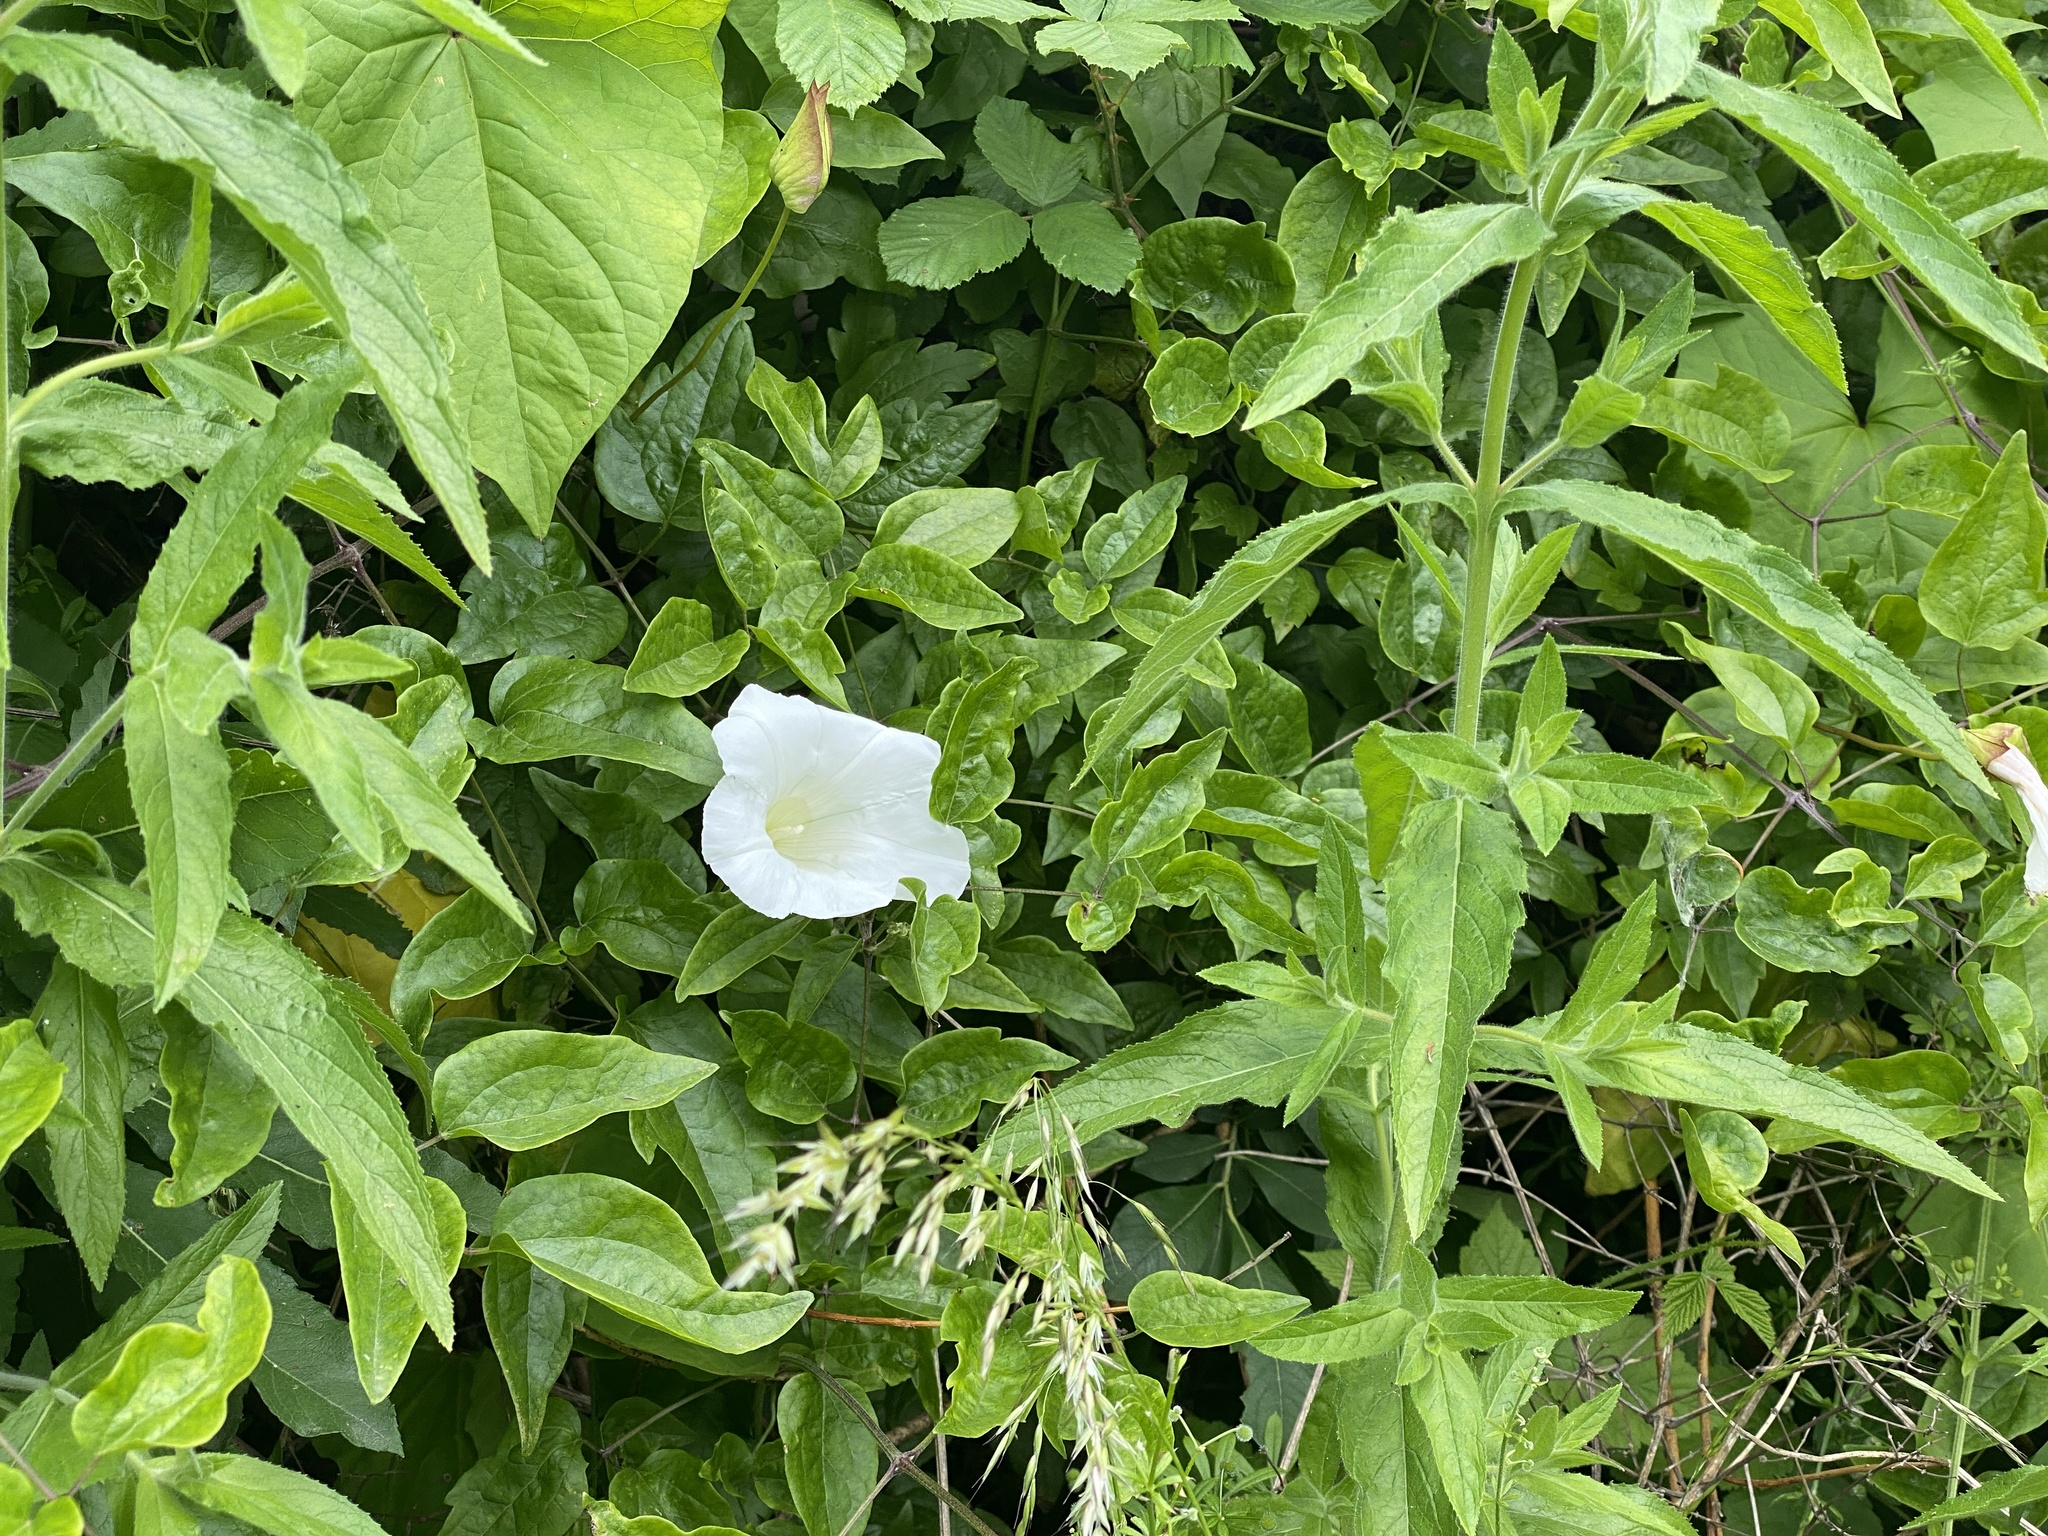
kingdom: Plantae
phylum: Tracheophyta
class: Magnoliopsida
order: Solanales
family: Convolvulaceae
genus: Calystegia
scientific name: Calystegia silvatica
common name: Large bindweed
